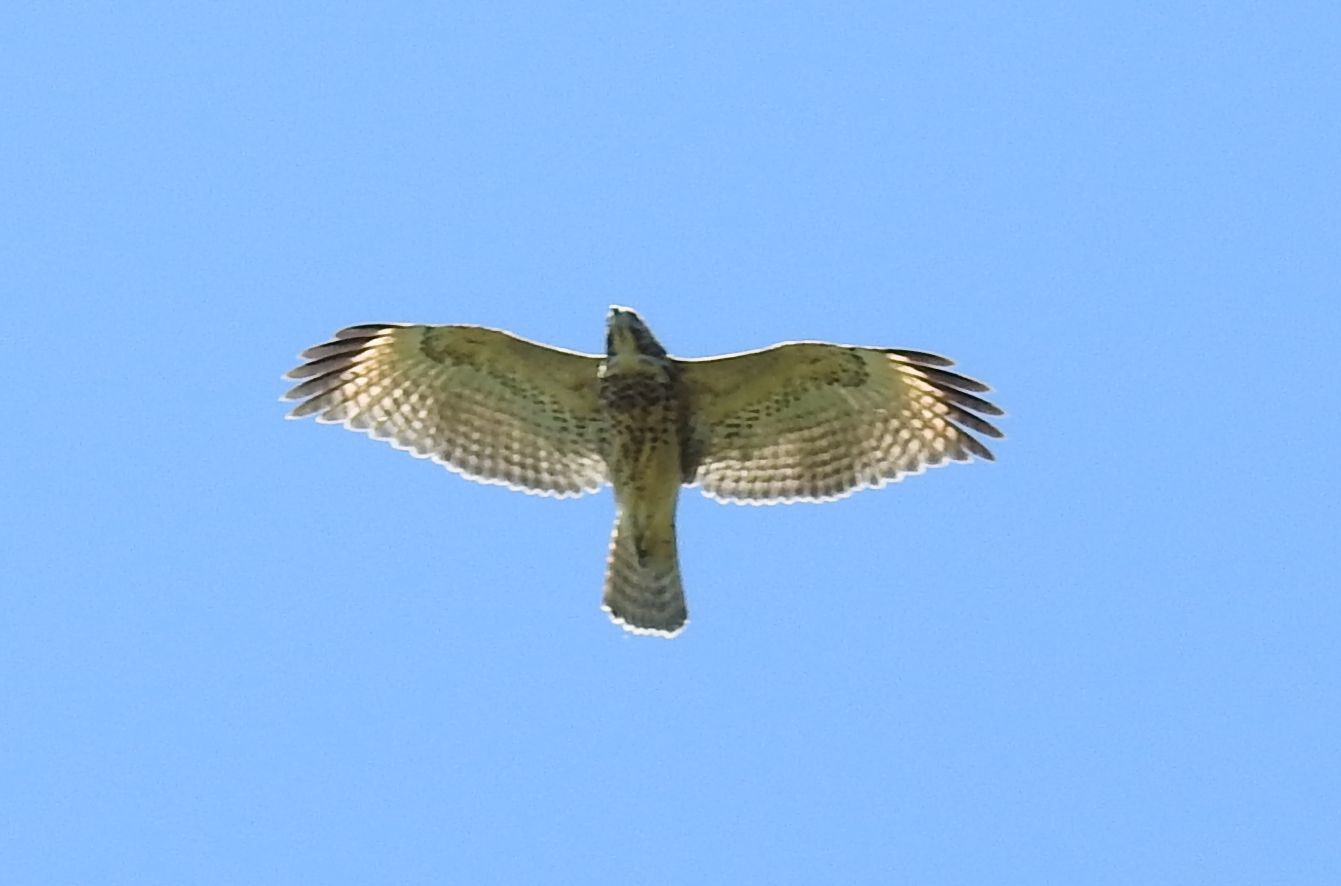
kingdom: Animalia
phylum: Chordata
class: Aves
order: Accipitriformes
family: Accipitridae
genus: Buteo
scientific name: Buteo lineatus
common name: Red-shouldered hawk
